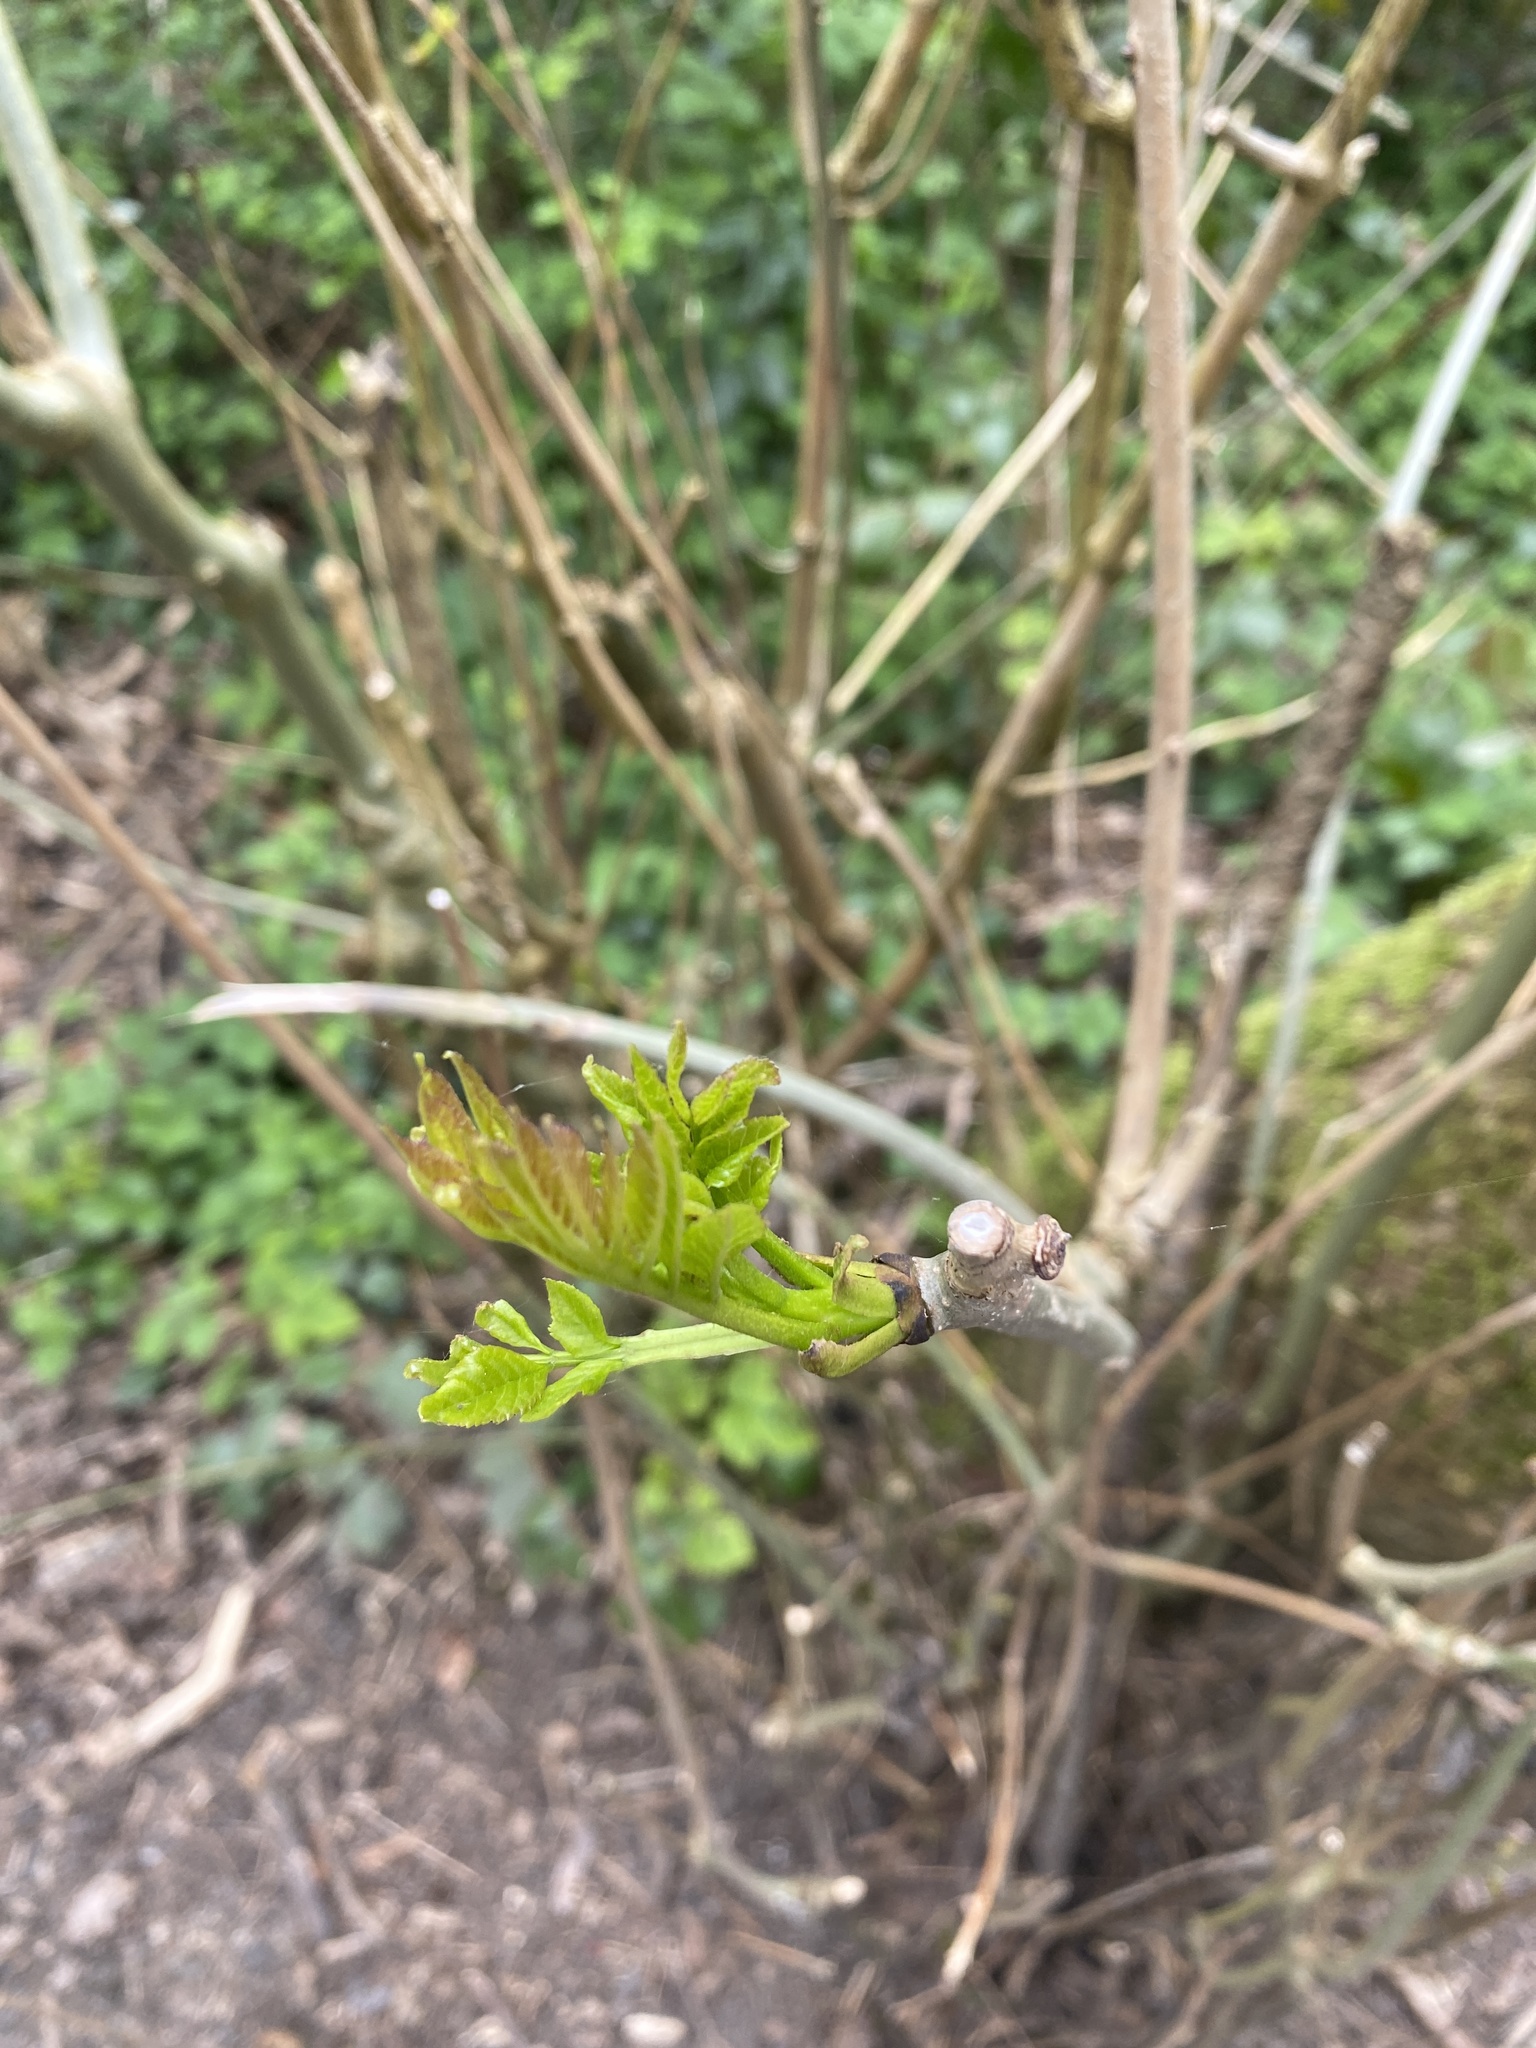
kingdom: Plantae
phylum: Tracheophyta
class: Magnoliopsida
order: Lamiales
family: Oleaceae
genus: Fraxinus
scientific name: Fraxinus excelsior
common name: European ash
